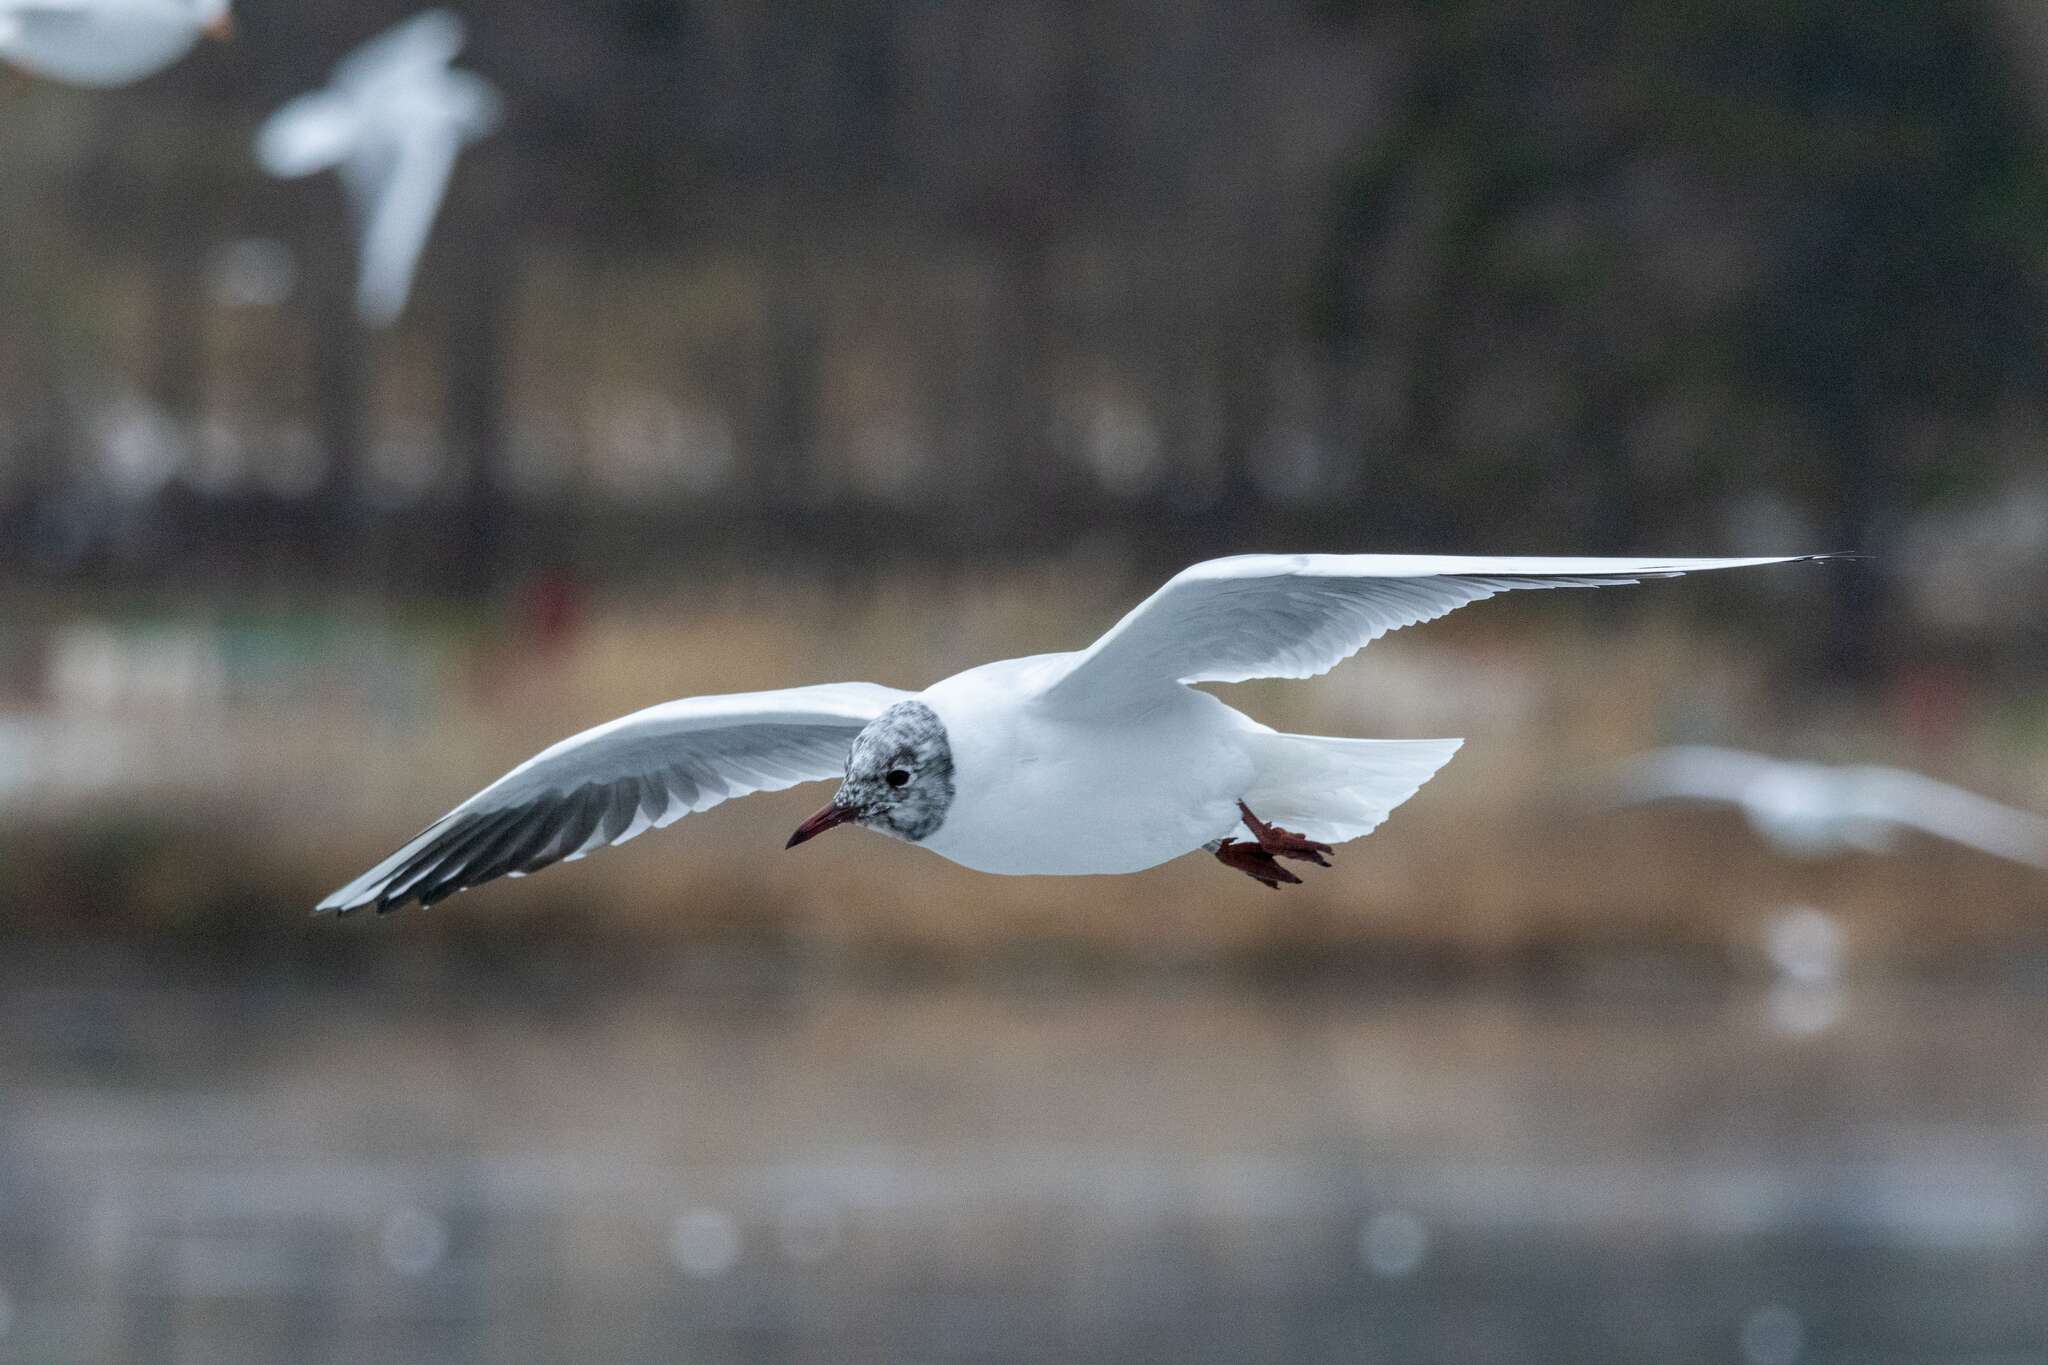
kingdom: Animalia
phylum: Chordata
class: Aves
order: Charadriiformes
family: Laridae
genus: Chroicocephalus
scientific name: Chroicocephalus ridibundus
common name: Black-headed gull
